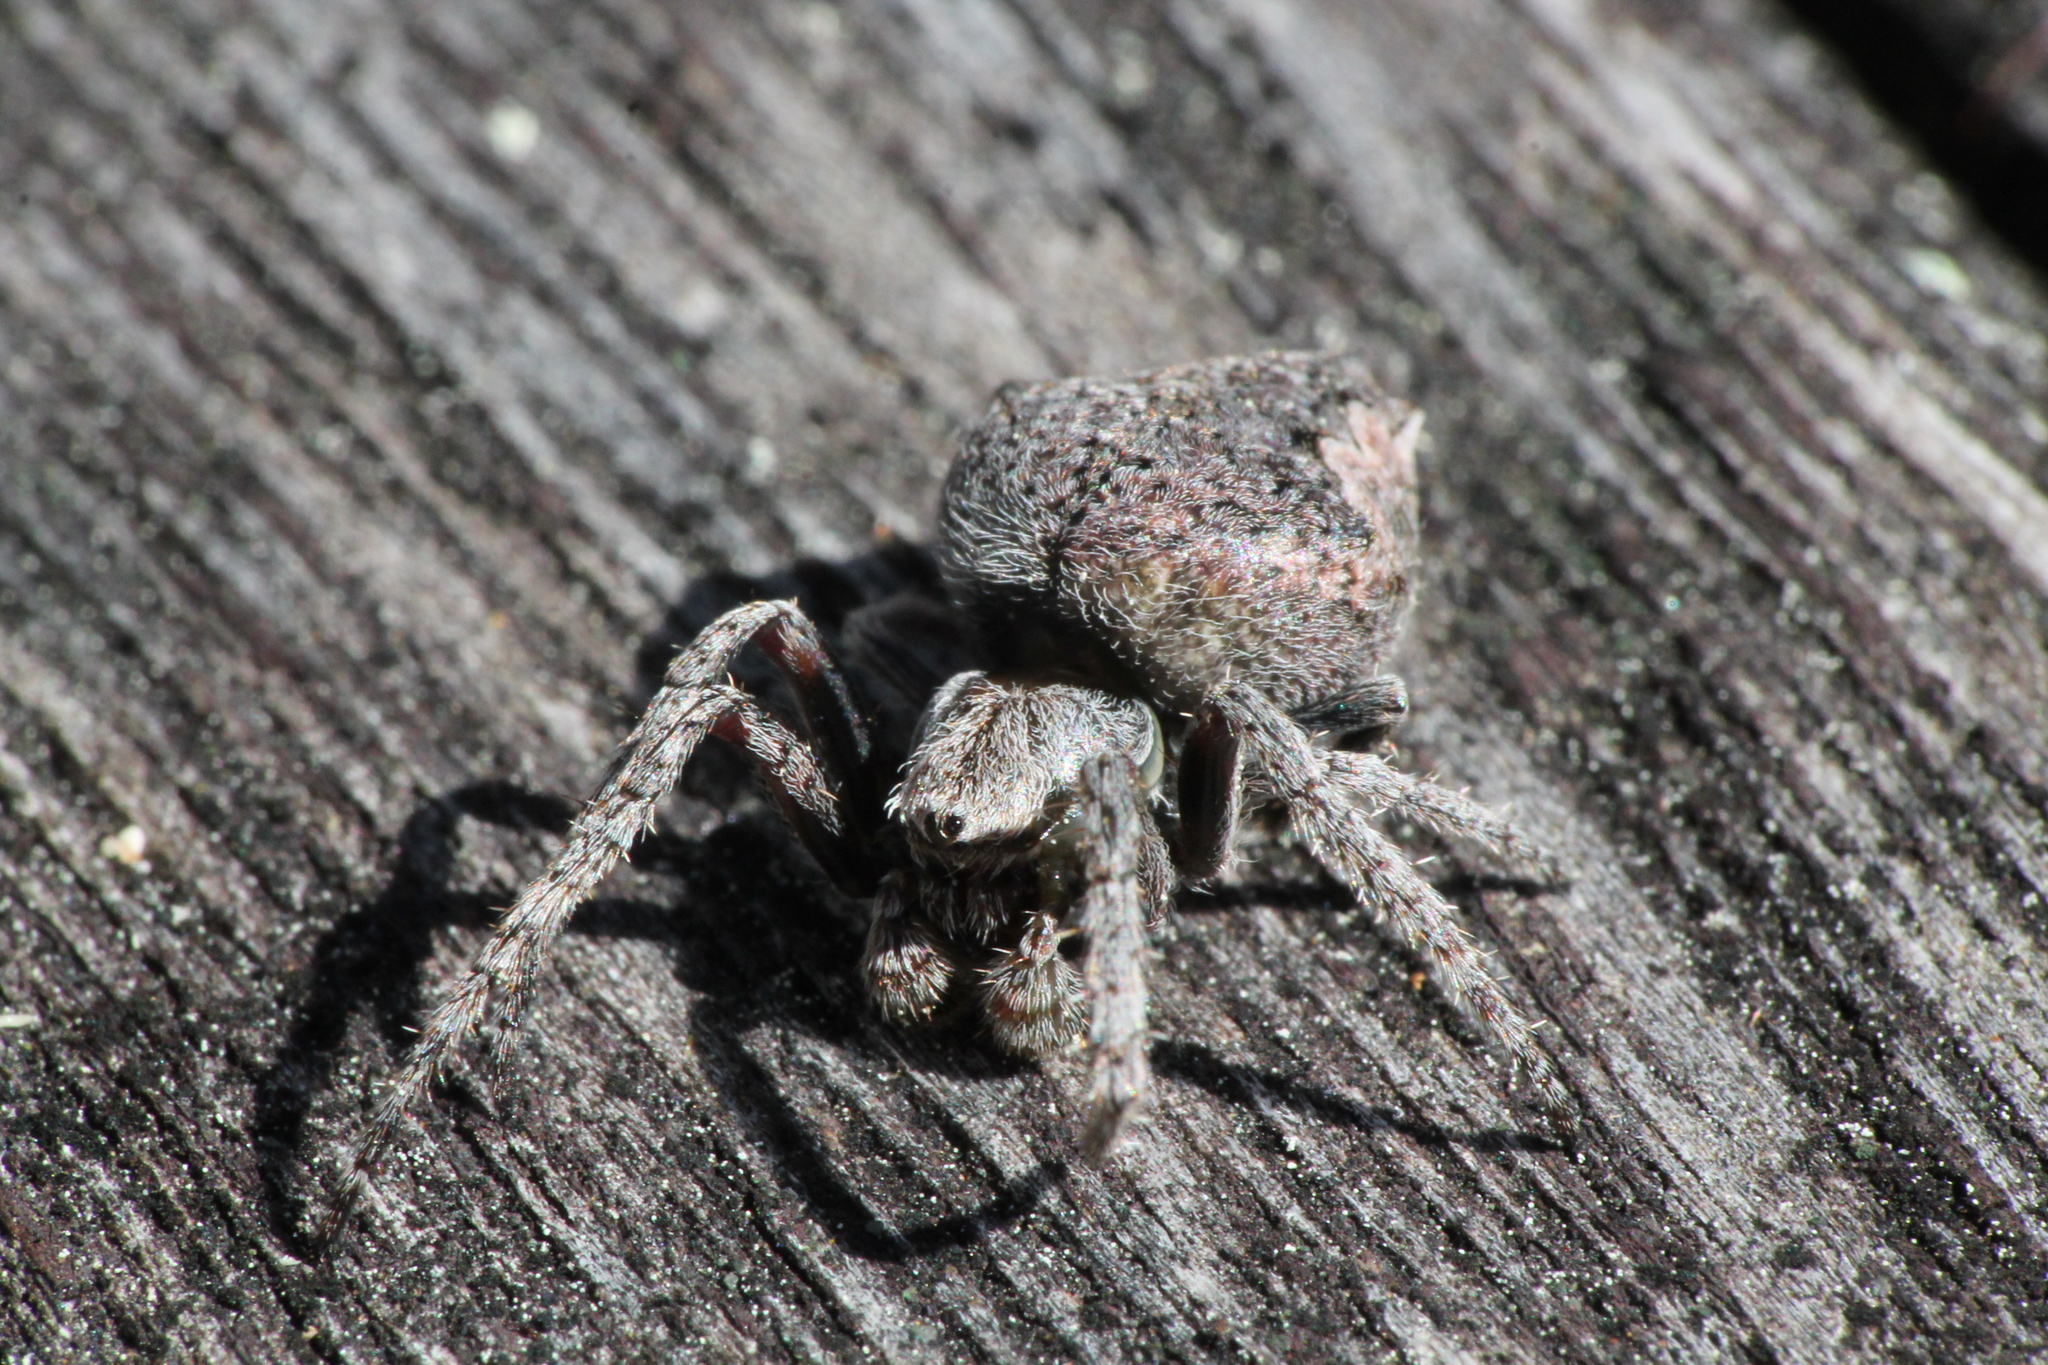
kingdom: Animalia
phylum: Arthropoda
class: Arachnida
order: Araneae
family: Araneidae
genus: Eriophora
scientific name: Eriophora pustulosa
